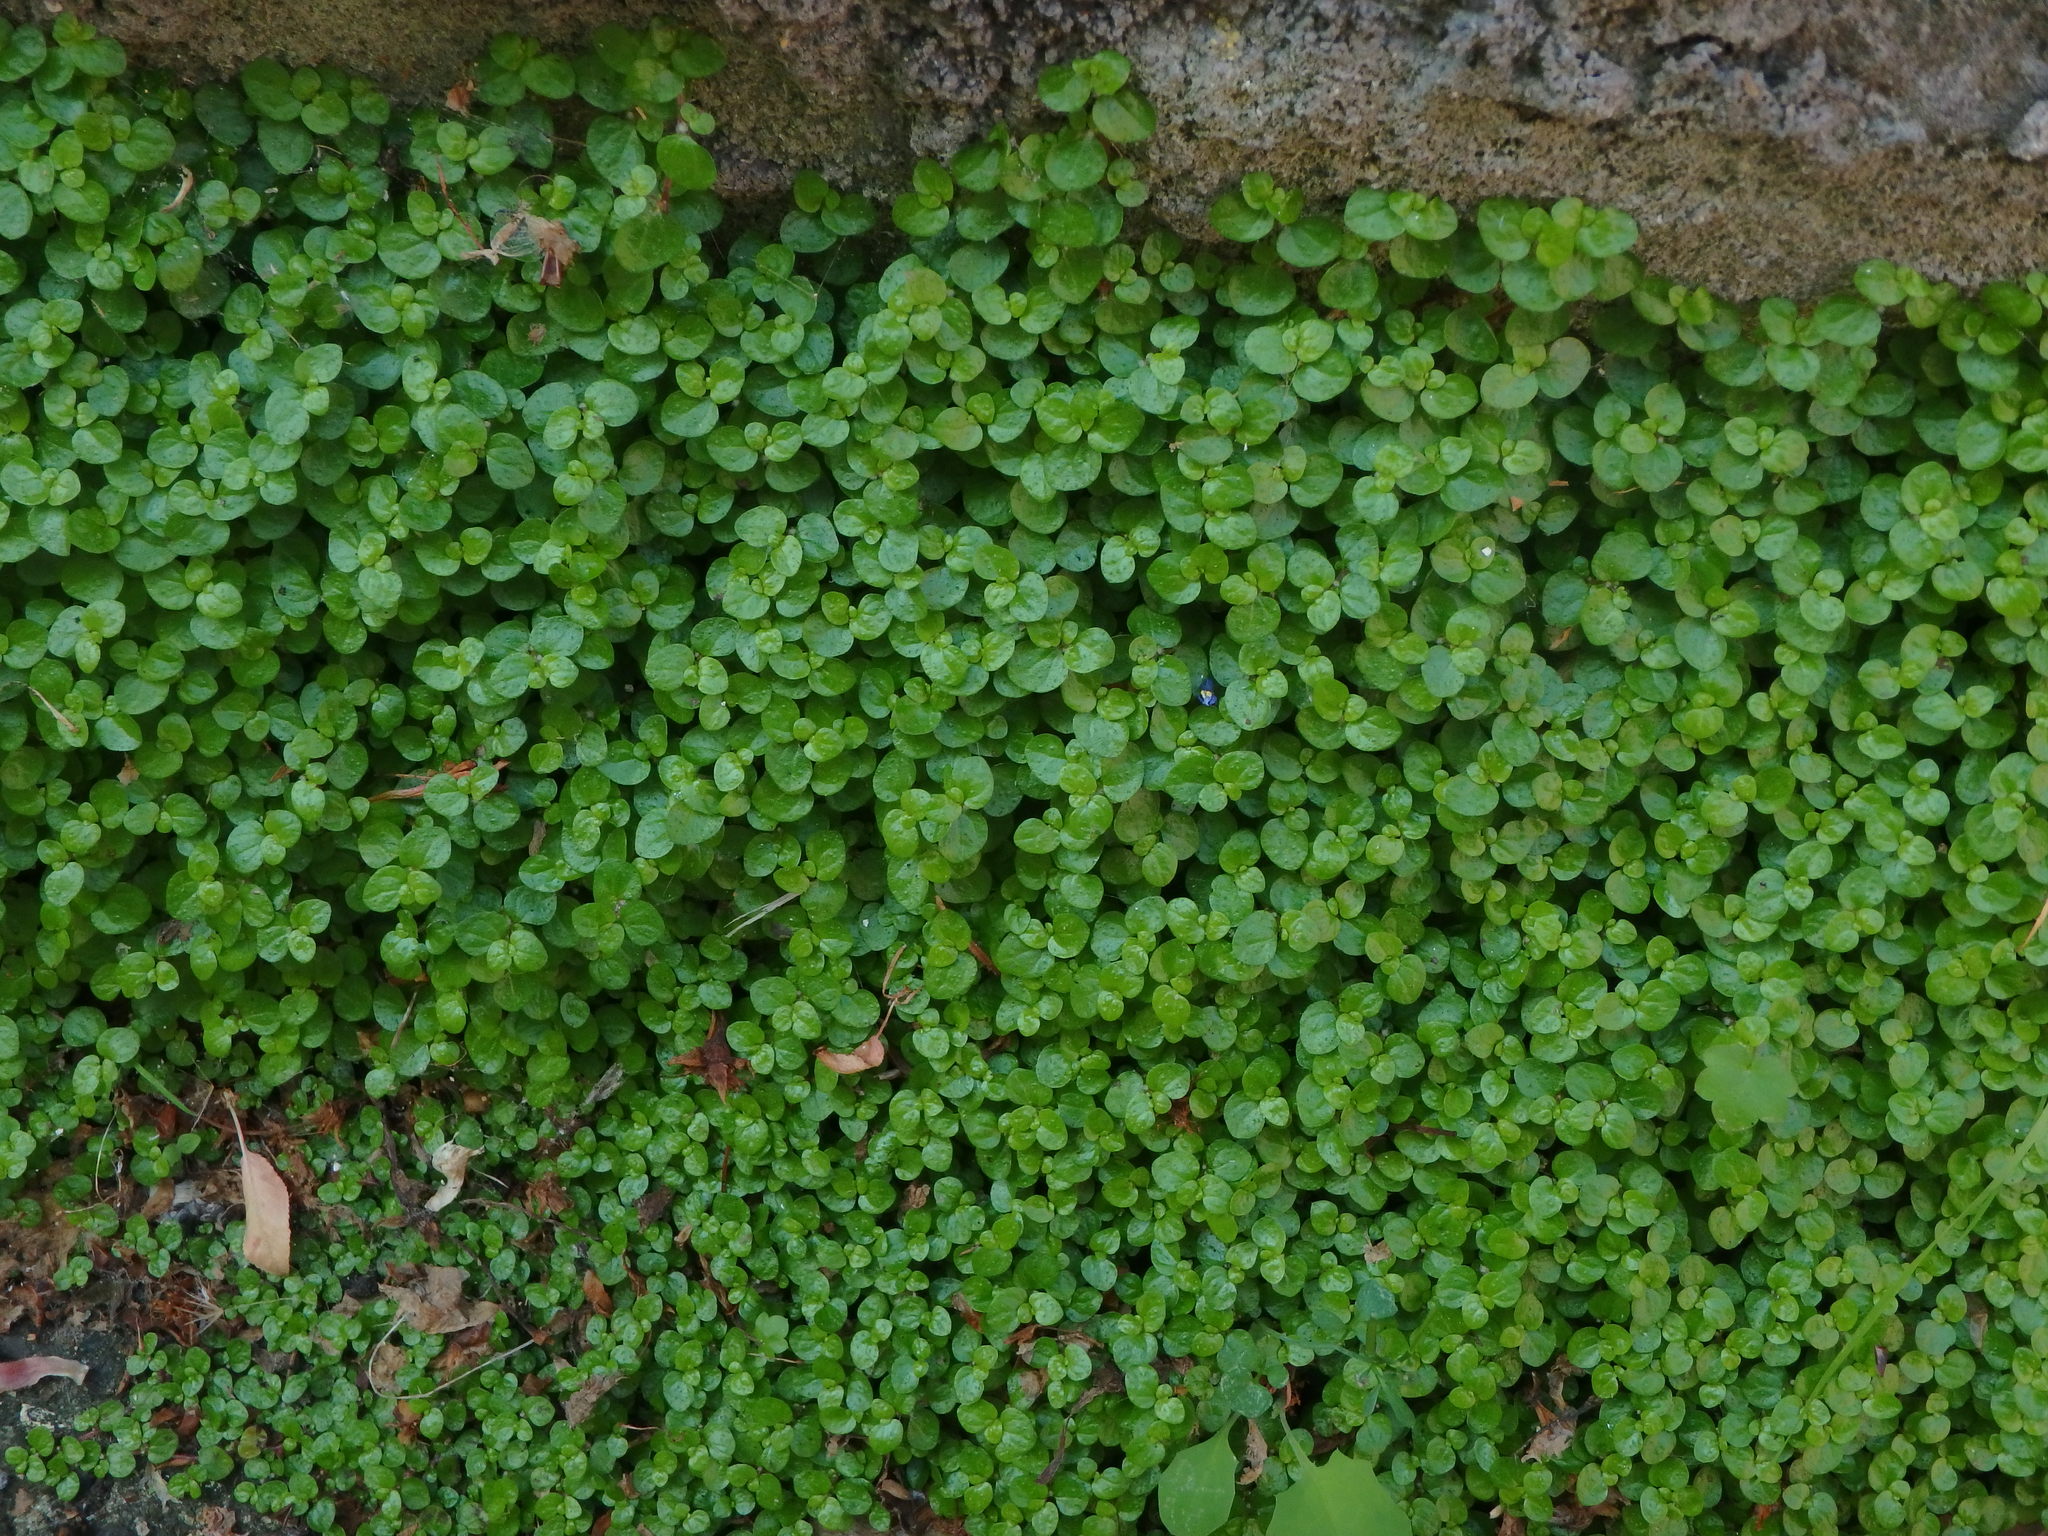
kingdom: Plantae
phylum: Tracheophyta
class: Magnoliopsida
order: Rosales
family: Urticaceae
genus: Soleirolia
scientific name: Soleirolia soleirolii
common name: Mind-your-own-business
